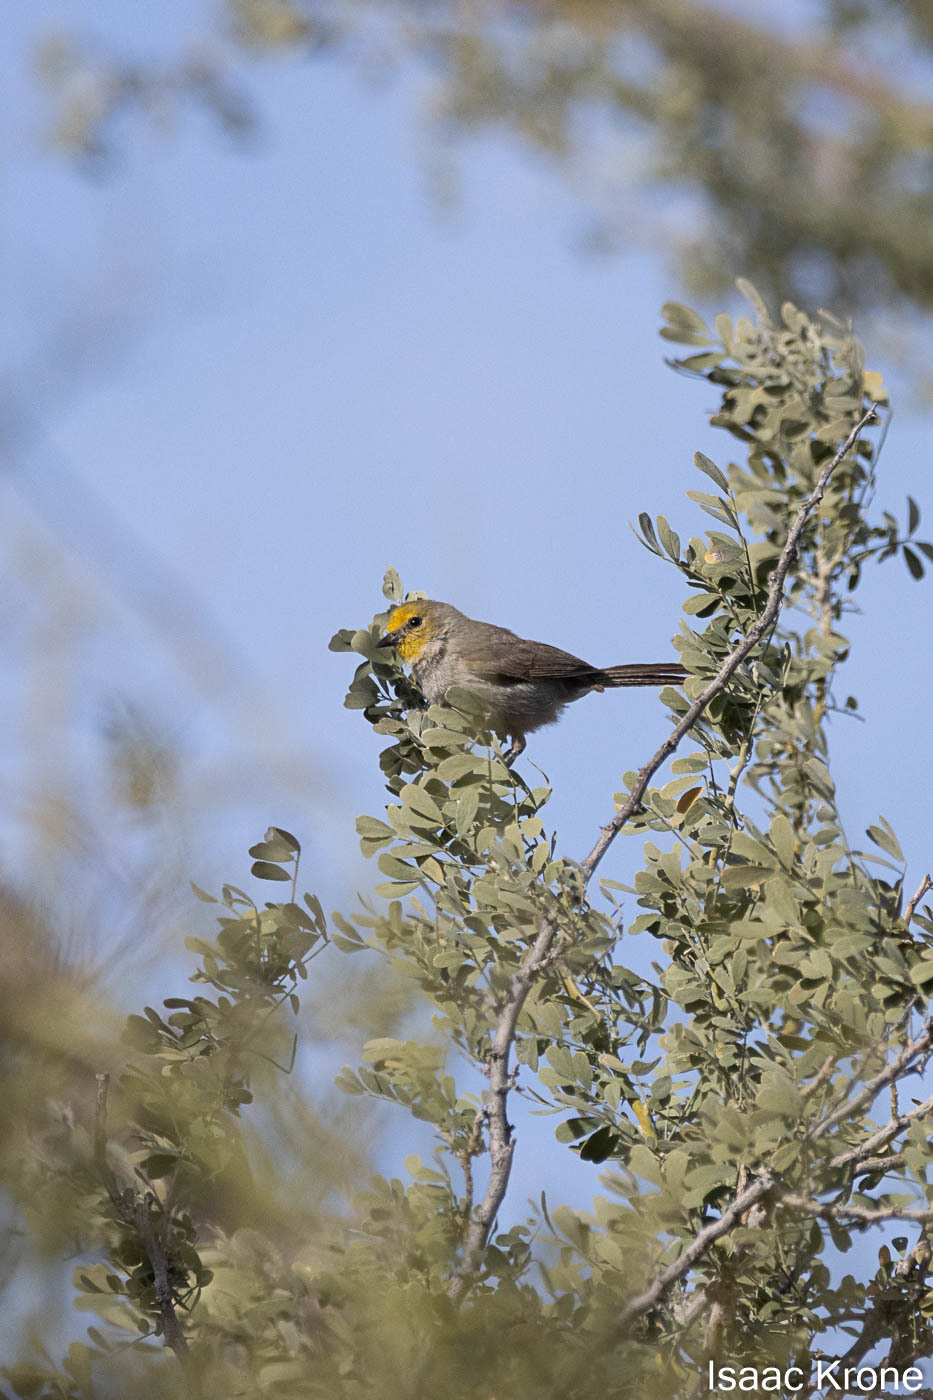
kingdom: Animalia
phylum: Chordata
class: Aves
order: Passeriformes
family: Remizidae
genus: Auriparus
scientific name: Auriparus flaviceps
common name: Verdin
